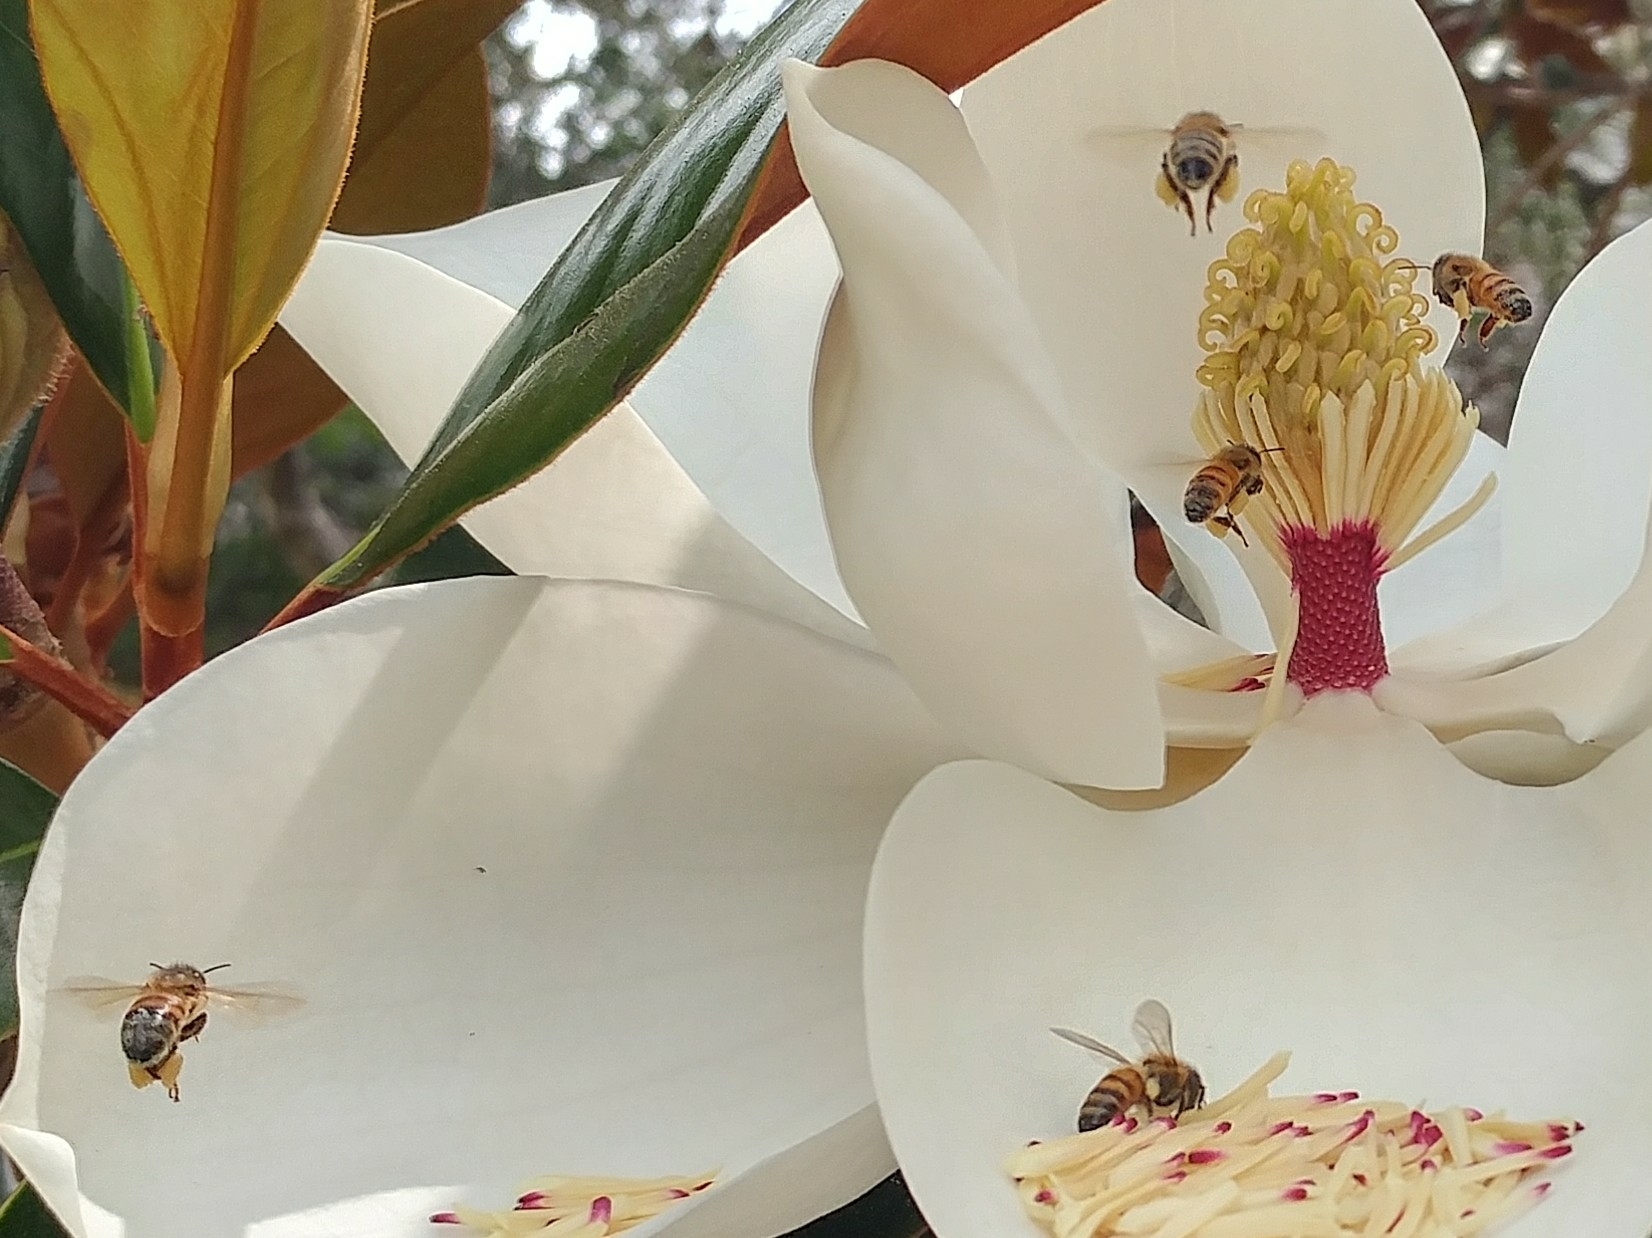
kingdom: Animalia
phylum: Arthropoda
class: Insecta
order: Hymenoptera
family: Apidae
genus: Apis
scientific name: Apis mellifera
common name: Honey bee
